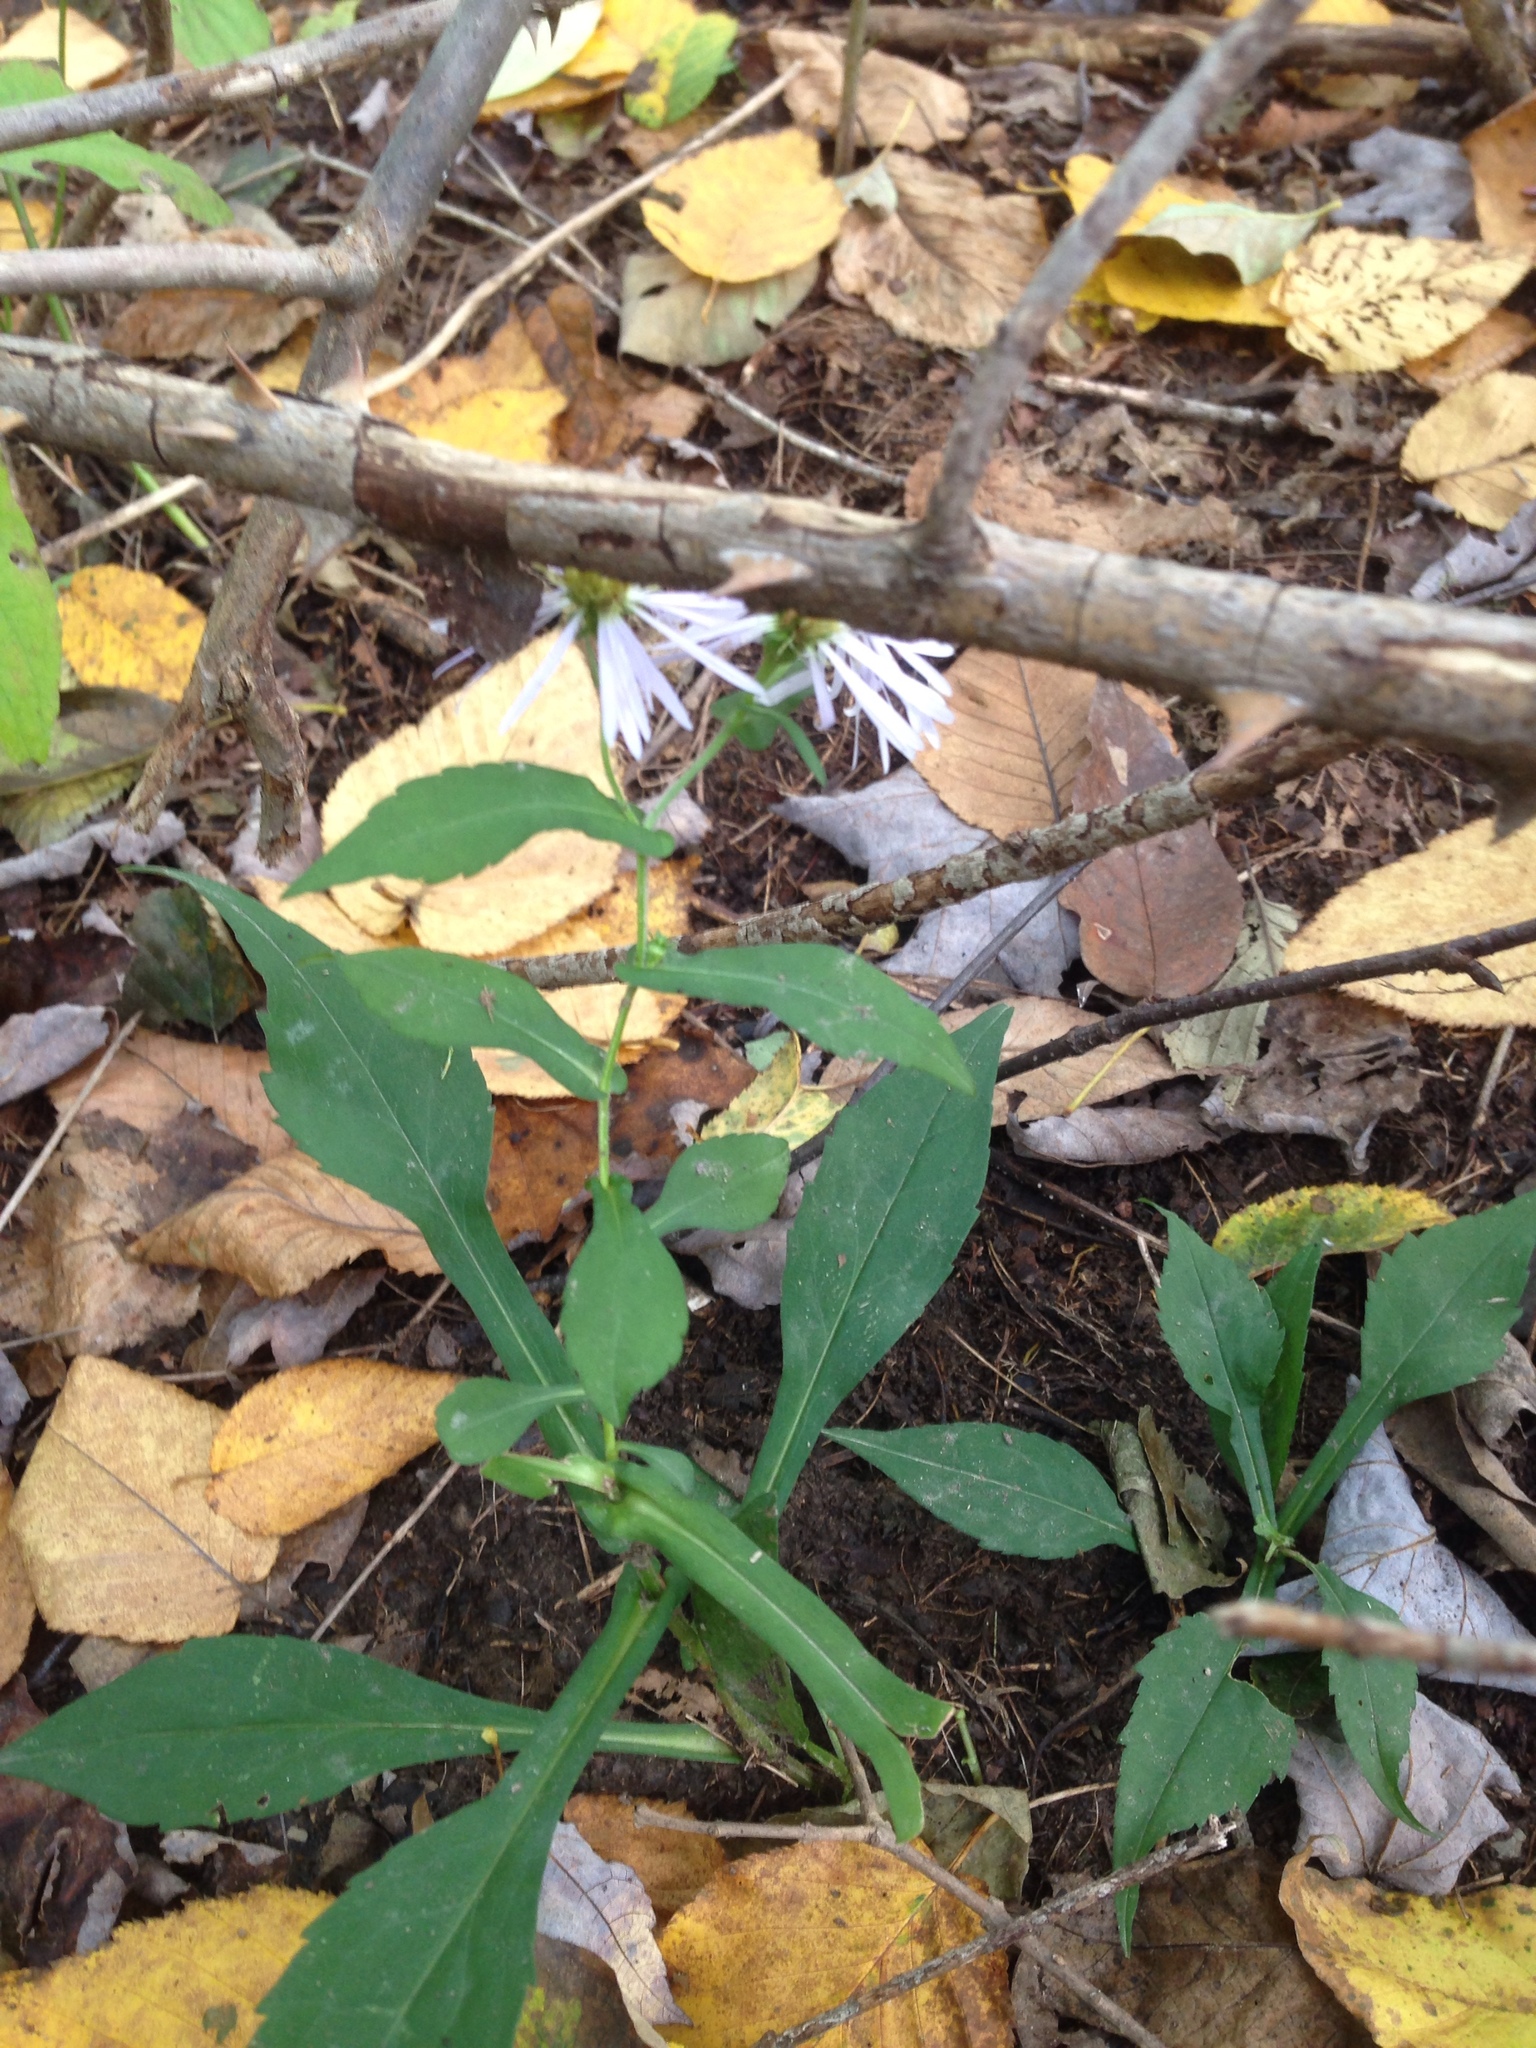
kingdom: Plantae
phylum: Tracheophyta
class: Magnoliopsida
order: Asterales
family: Asteraceae
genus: Symphyotrichum
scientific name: Symphyotrichum prenanthoides
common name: Crooked-stem aster
